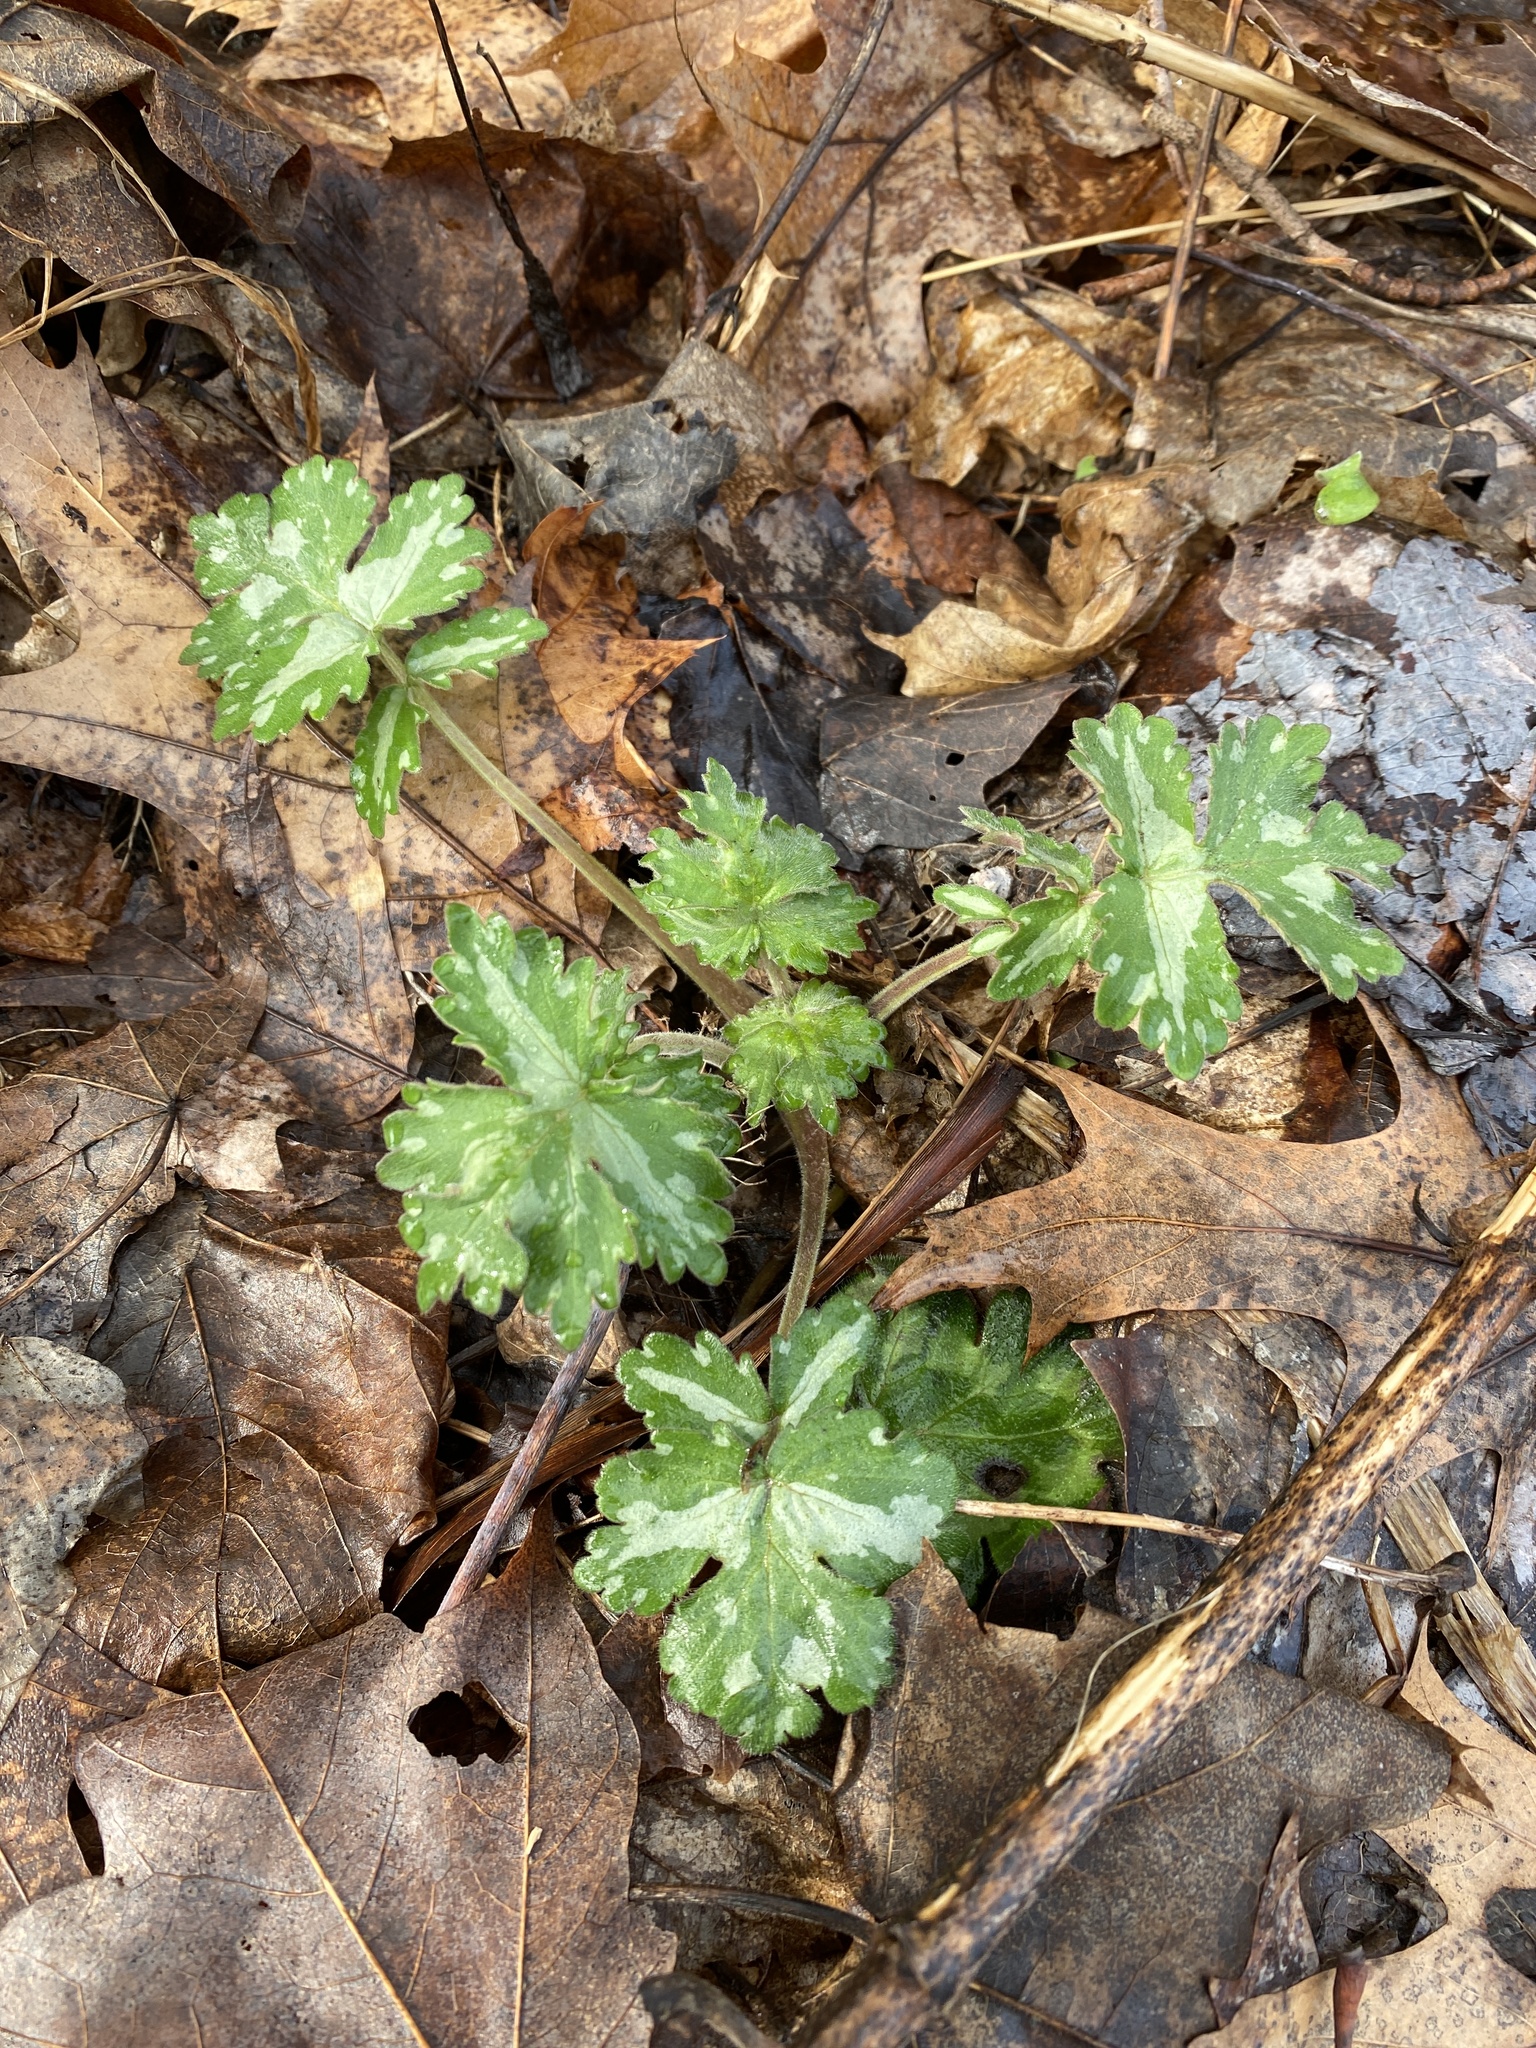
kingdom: Plantae
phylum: Tracheophyta
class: Magnoliopsida
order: Boraginales
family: Hydrophyllaceae
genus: Hydrophyllum
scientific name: Hydrophyllum appendiculatum
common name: Appendaged waterleaf
